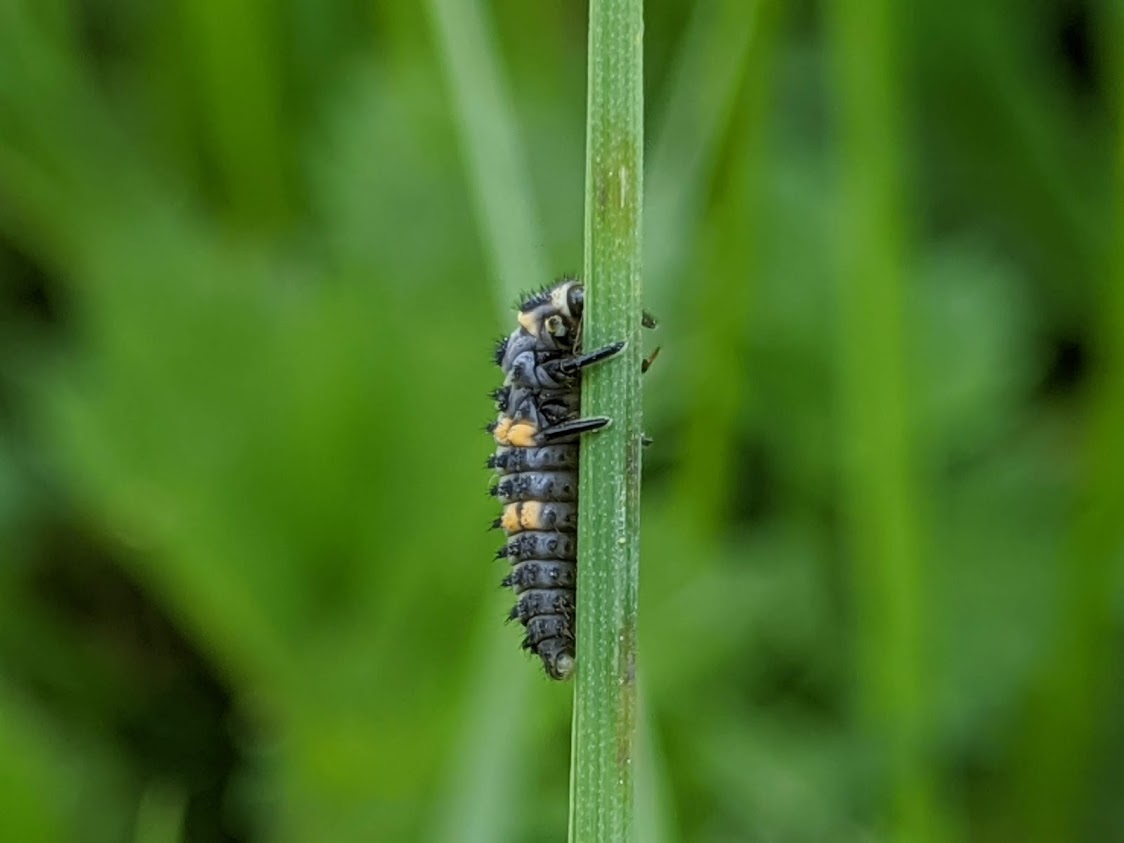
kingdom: Animalia
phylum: Arthropoda
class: Insecta
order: Coleoptera
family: Coccinellidae
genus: Coccinella
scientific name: Coccinella septempunctata
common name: Sevenspotted lady beetle
